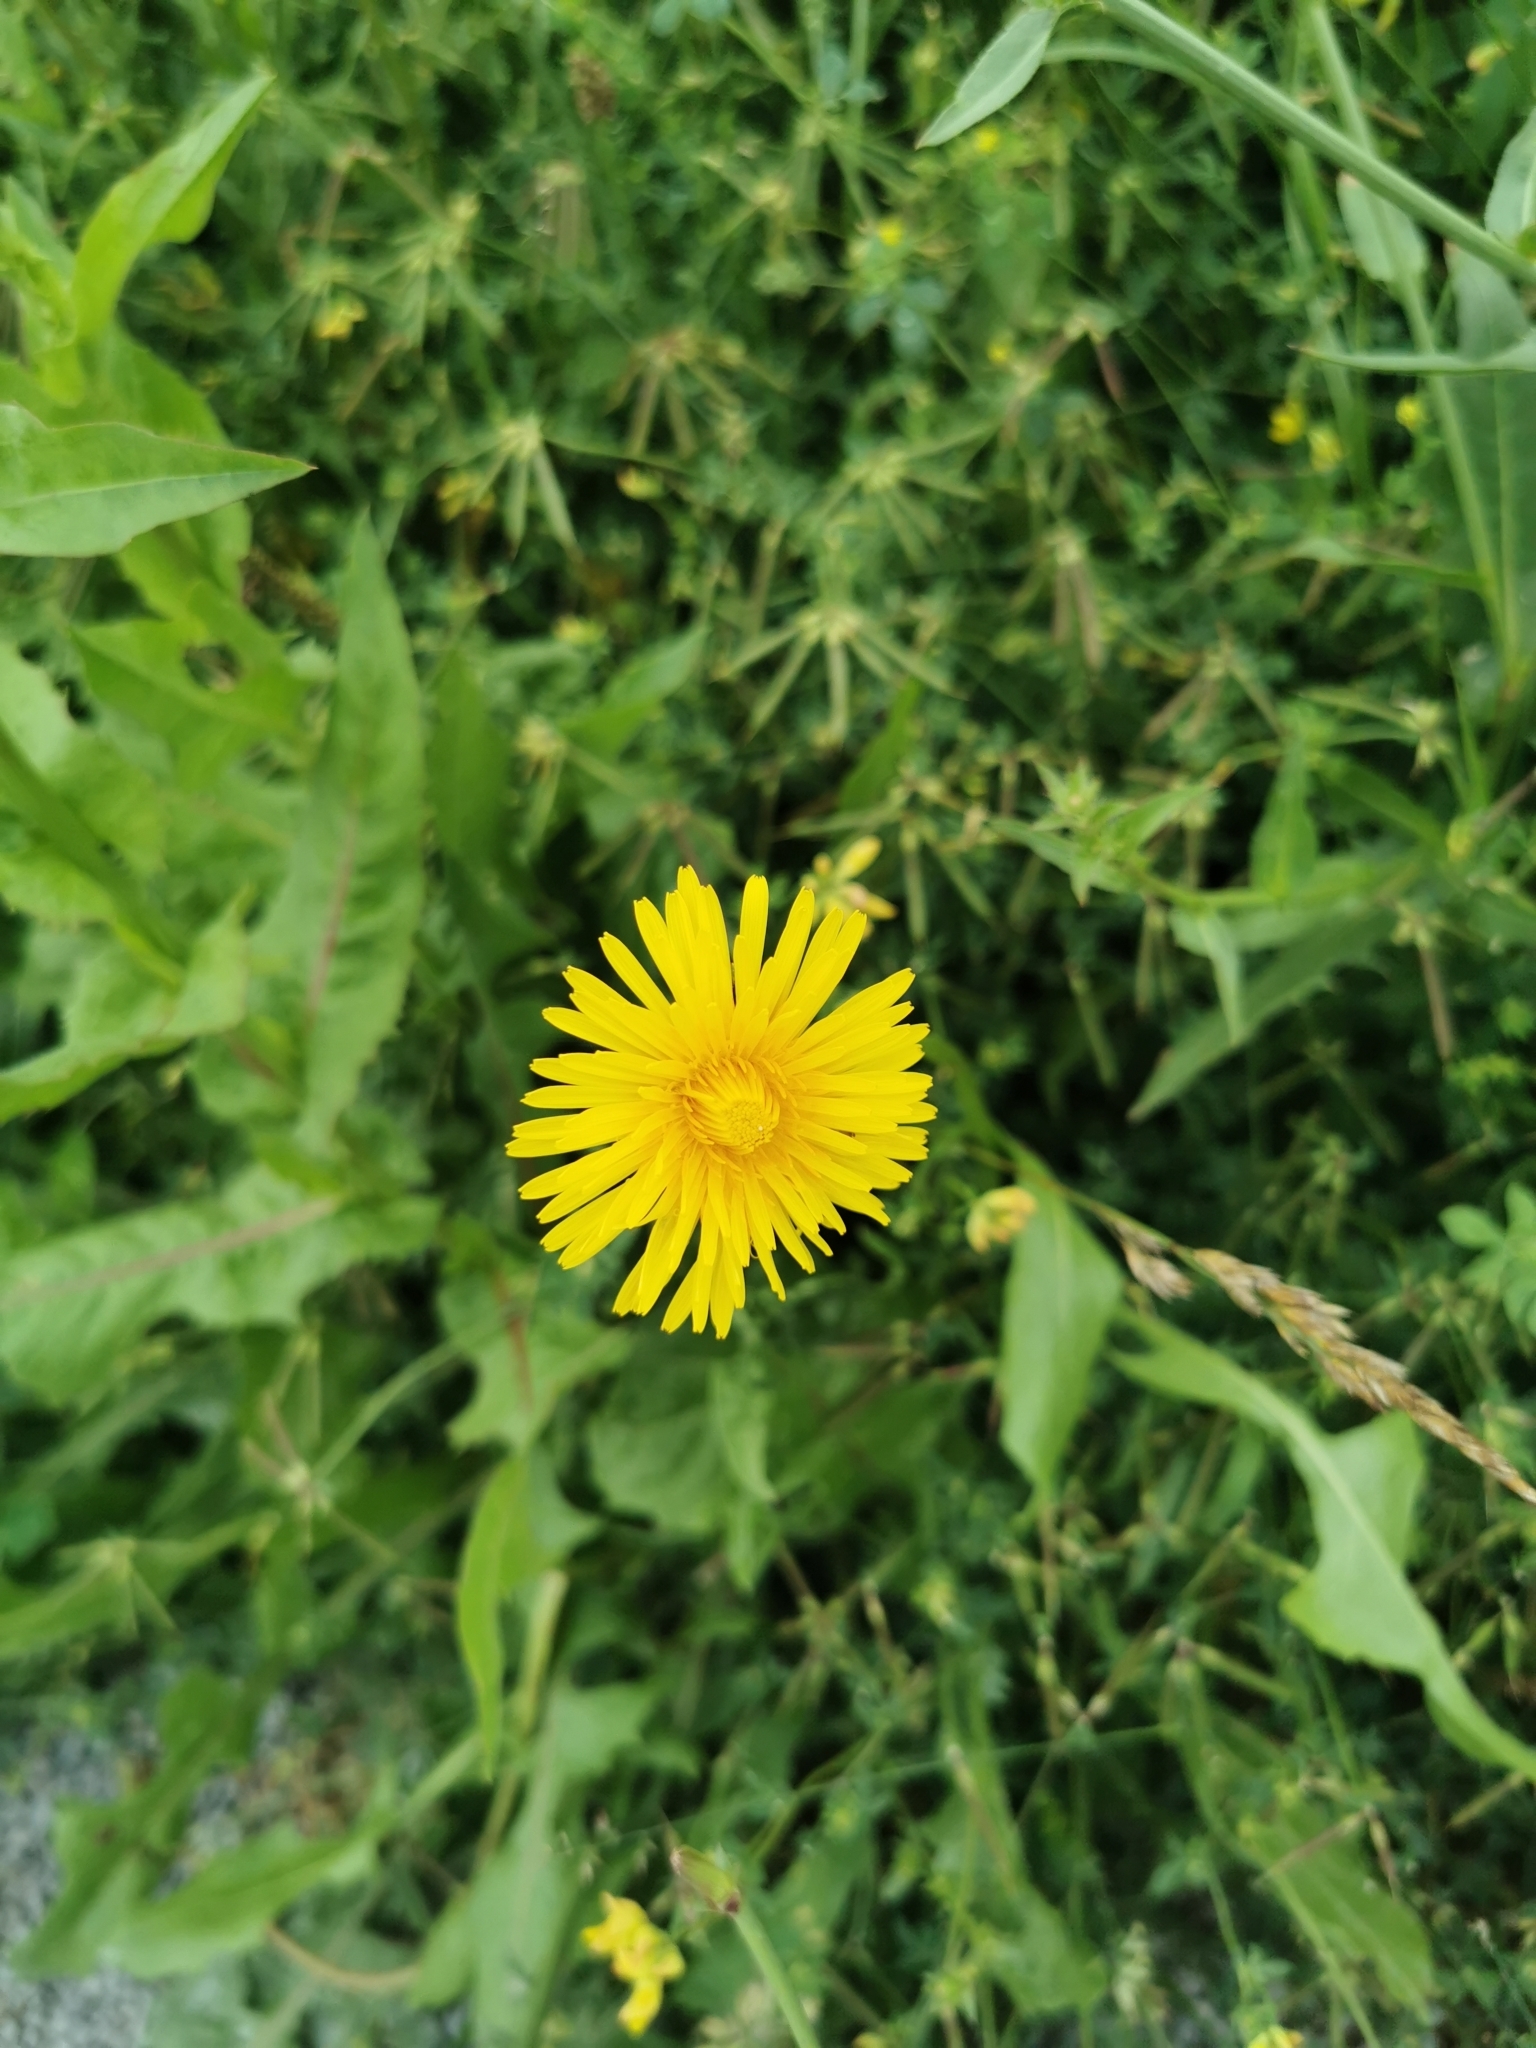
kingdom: Plantae
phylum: Tracheophyta
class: Magnoliopsida
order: Asterales
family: Asteraceae
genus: Taraxacum
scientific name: Taraxacum officinale
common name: Common dandelion
